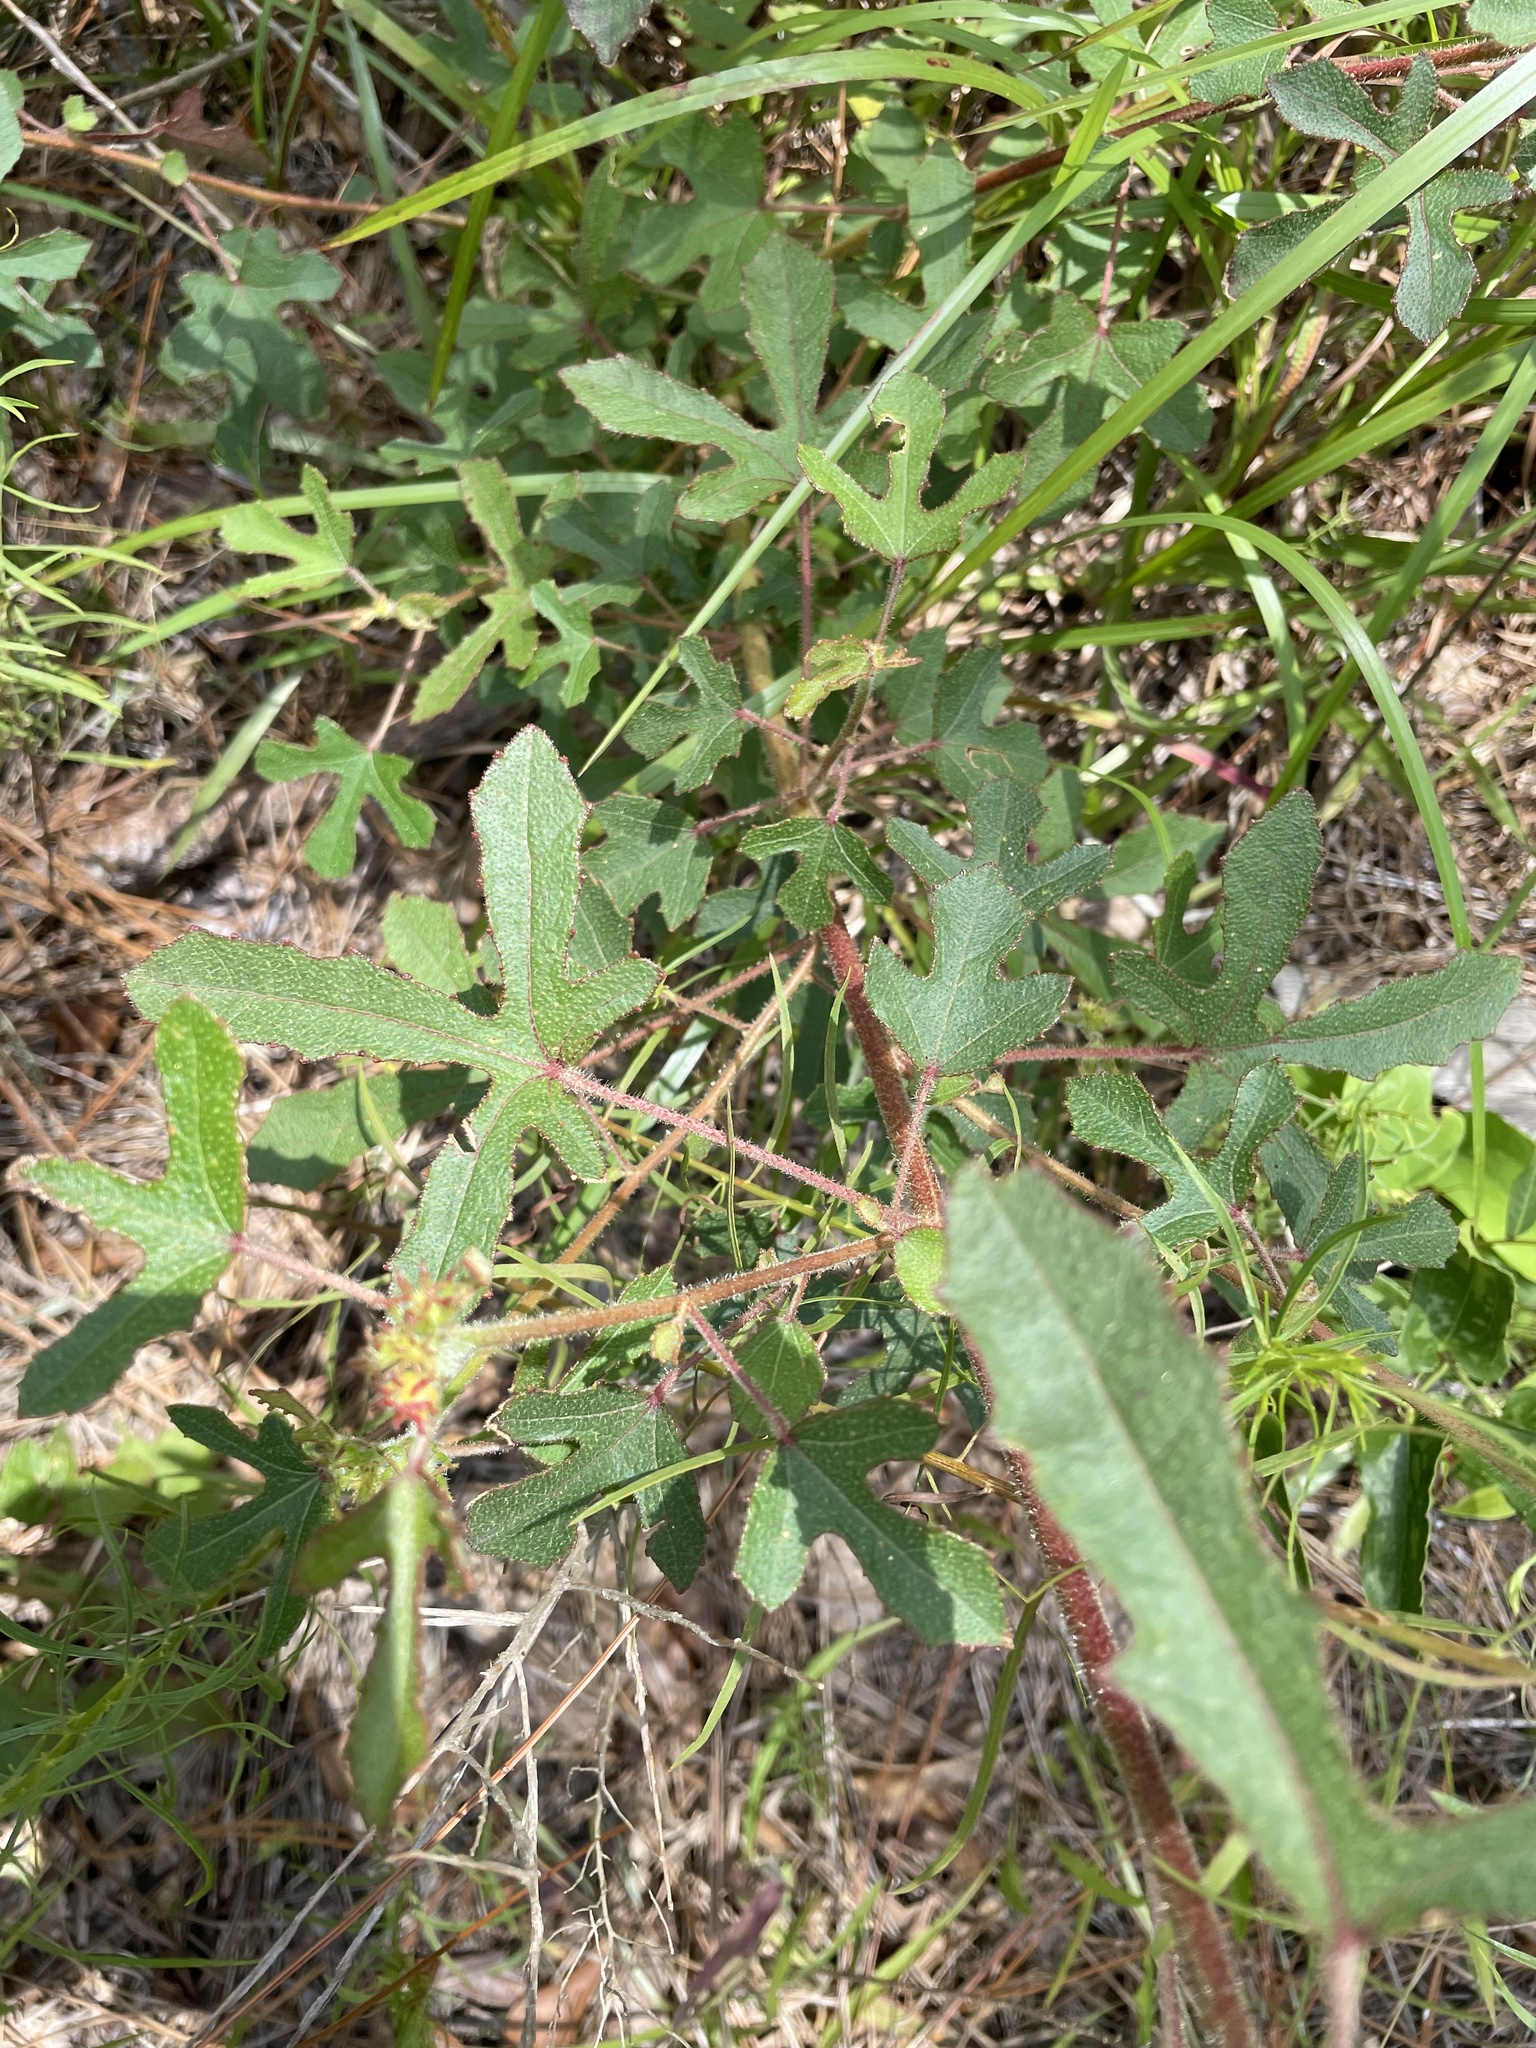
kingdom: Plantae
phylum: Tracheophyta
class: Magnoliopsida
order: Malvales
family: Malvaceae
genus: Hibiscus
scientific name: Hibiscus aculeatus
